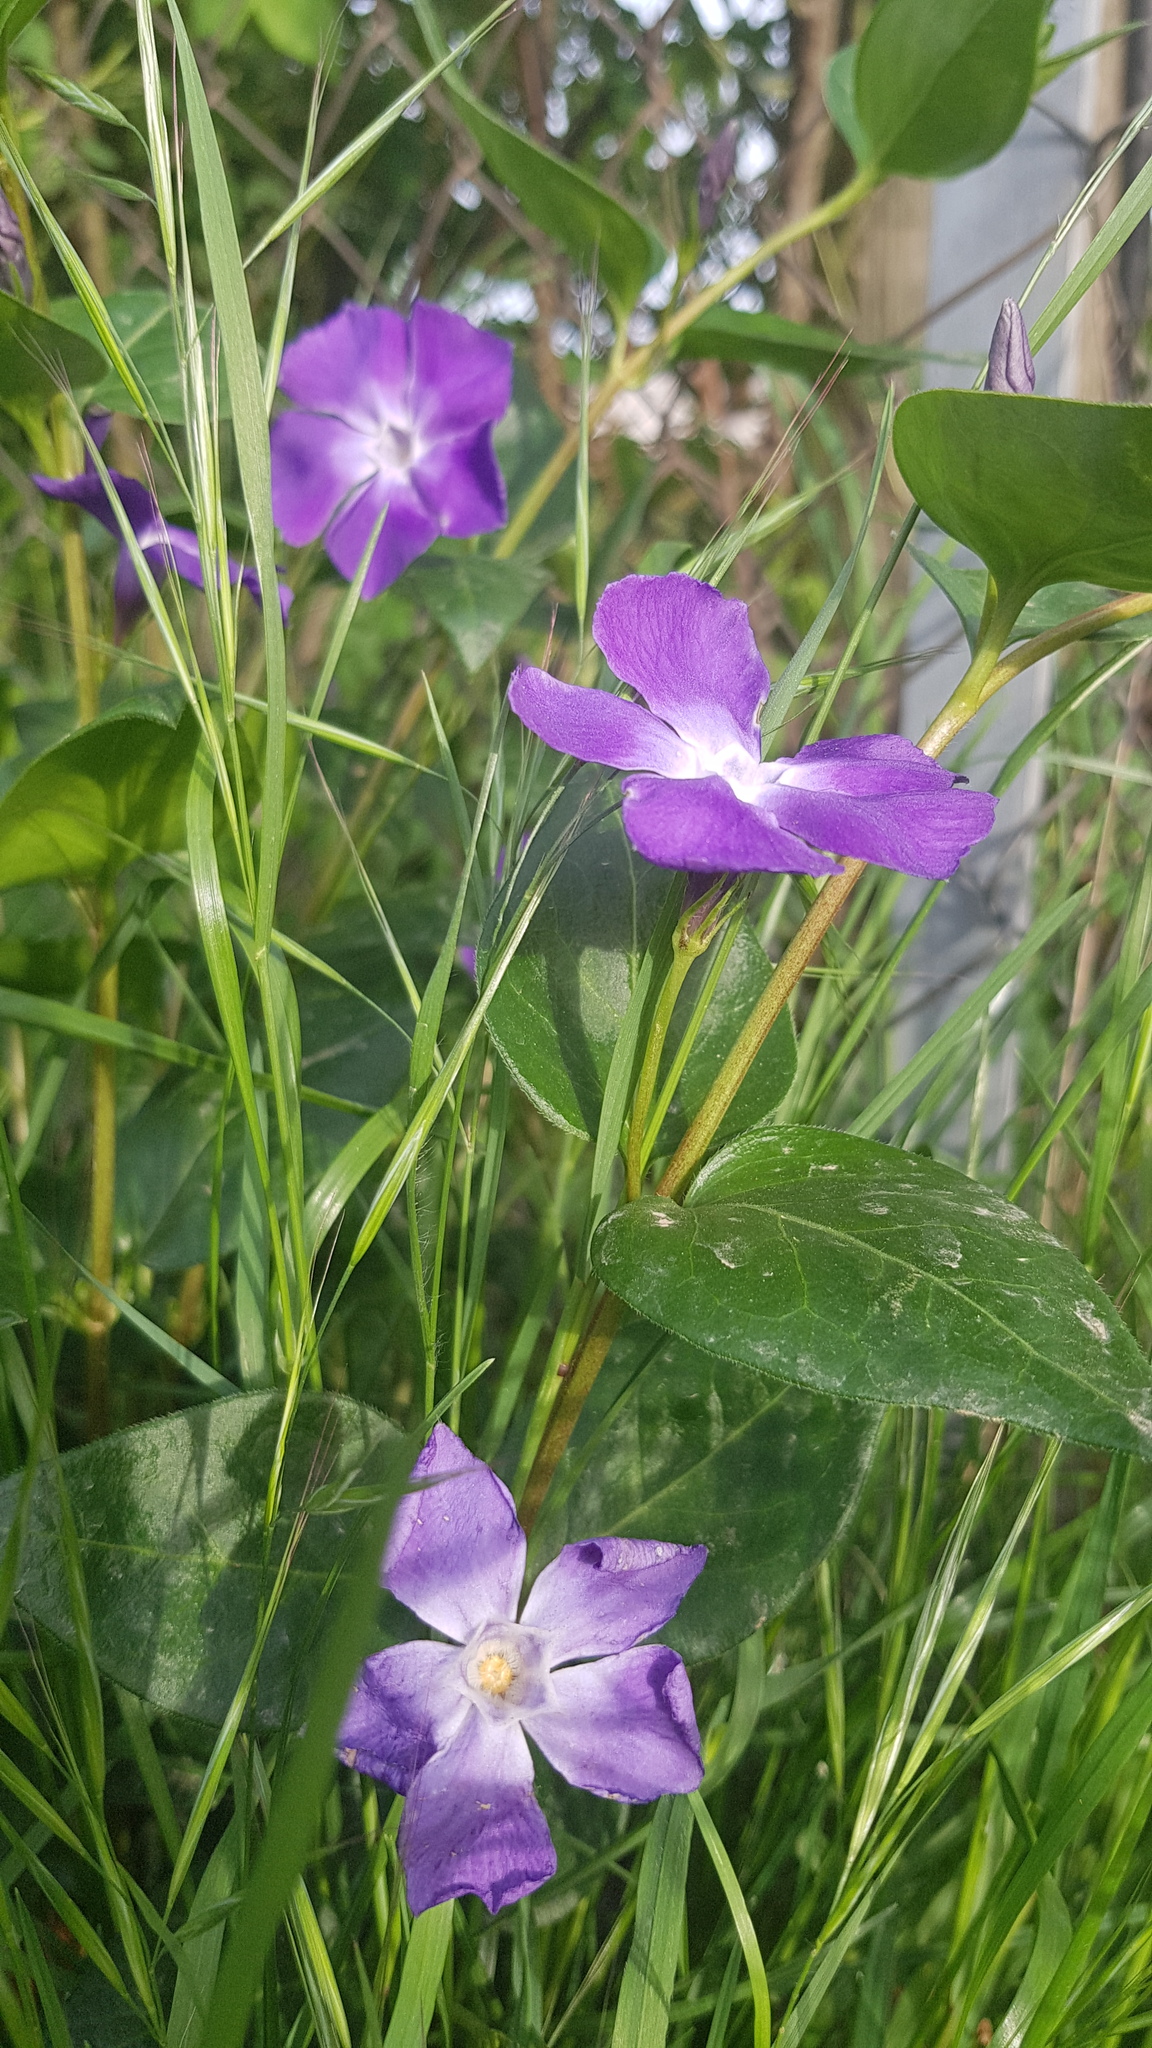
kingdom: Plantae
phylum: Tracheophyta
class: Magnoliopsida
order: Gentianales
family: Apocynaceae
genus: Vinca
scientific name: Vinca major
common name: Greater periwinkle
